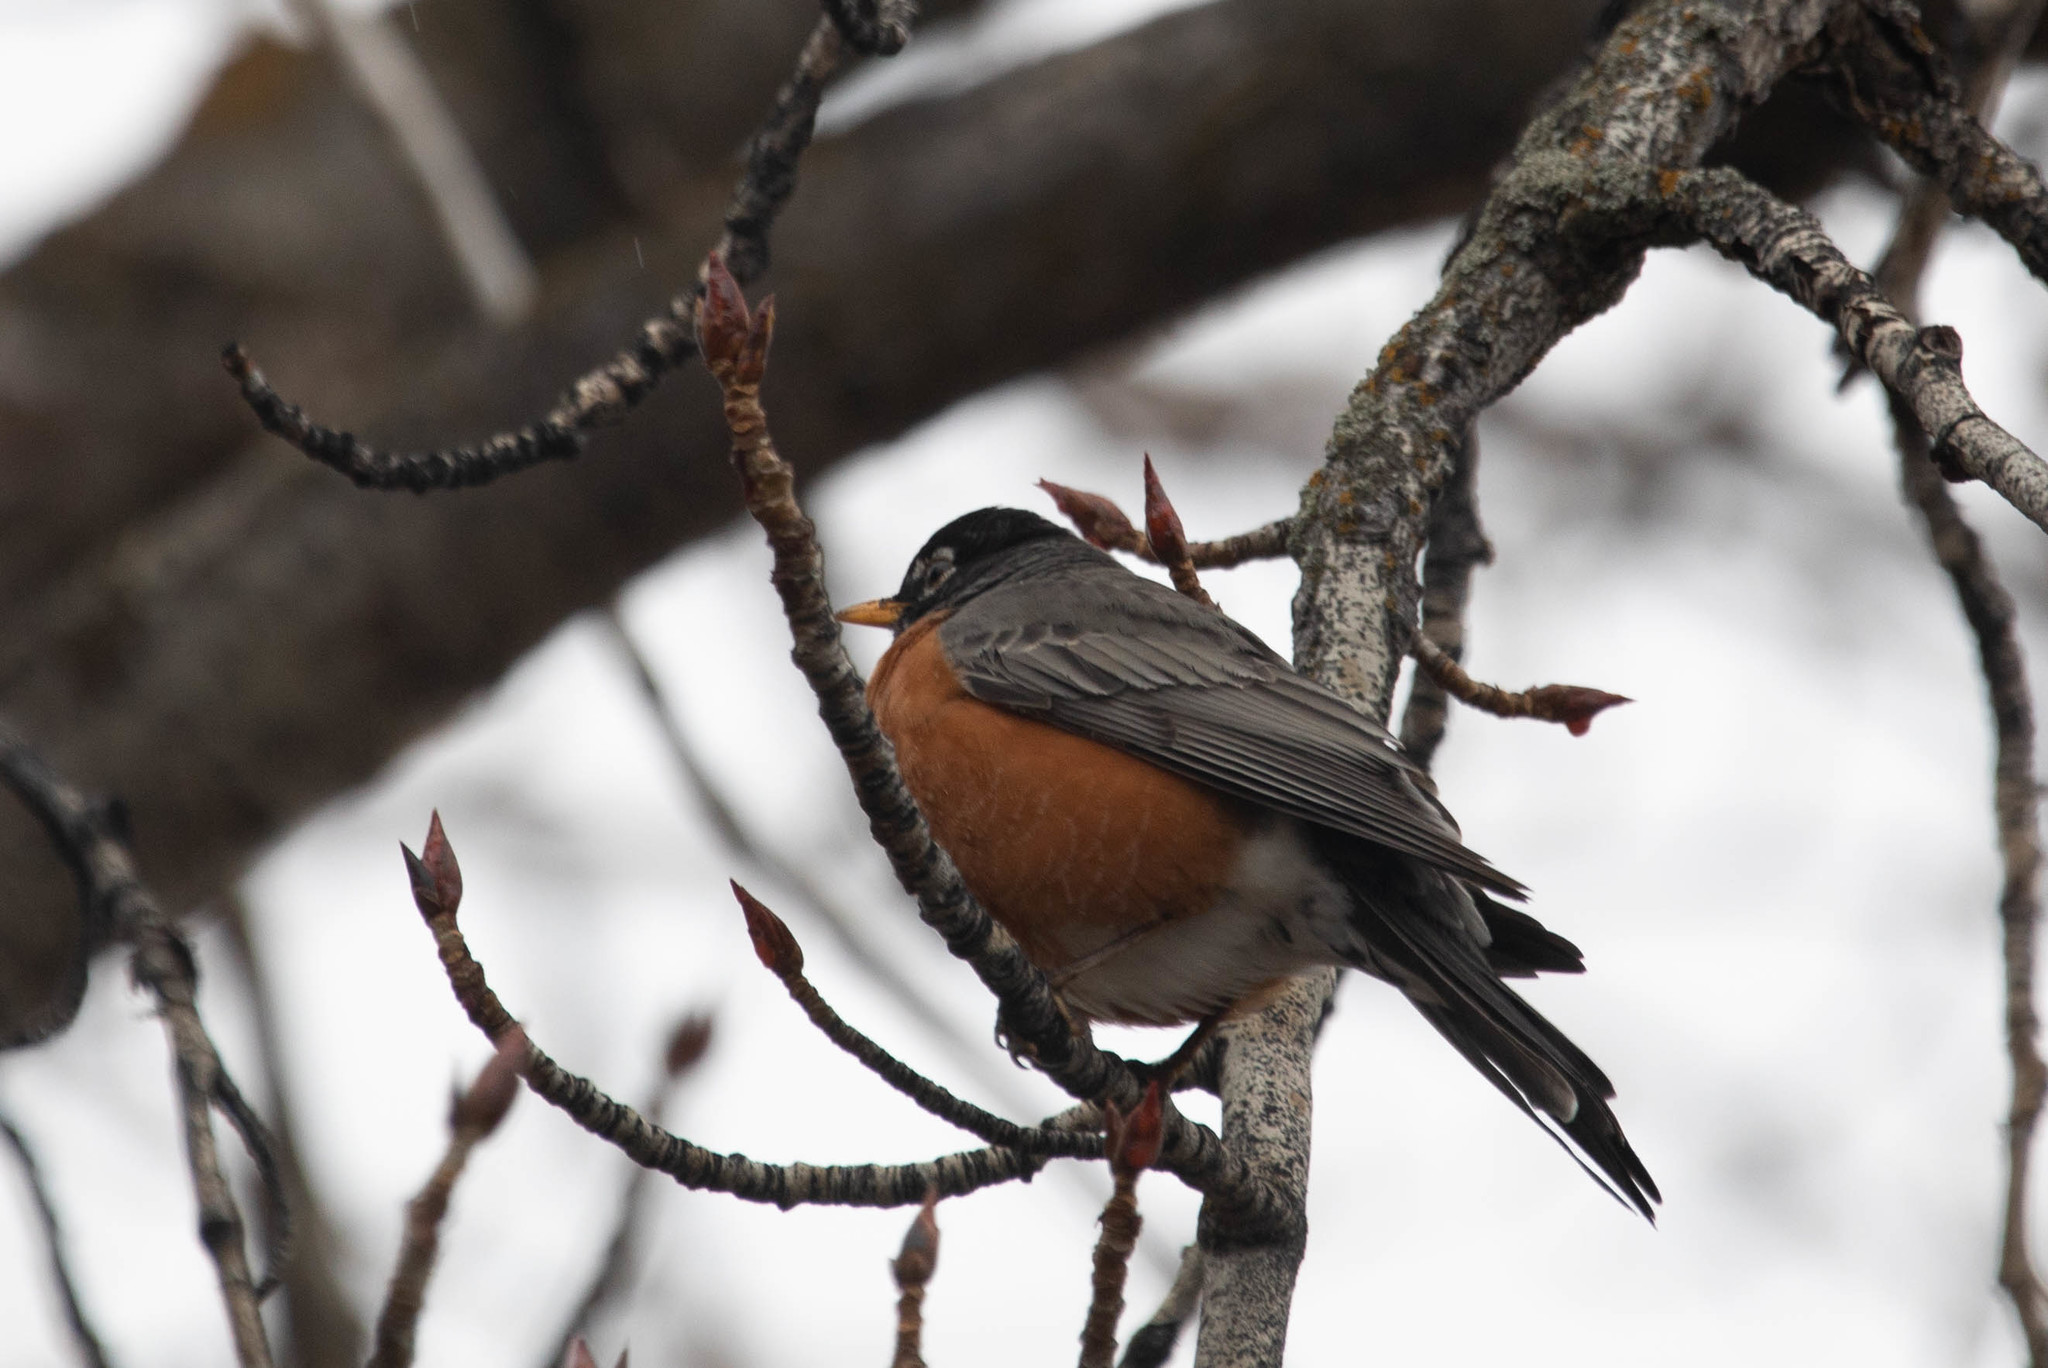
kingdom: Animalia
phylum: Chordata
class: Aves
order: Passeriformes
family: Turdidae
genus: Turdus
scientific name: Turdus migratorius
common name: American robin
